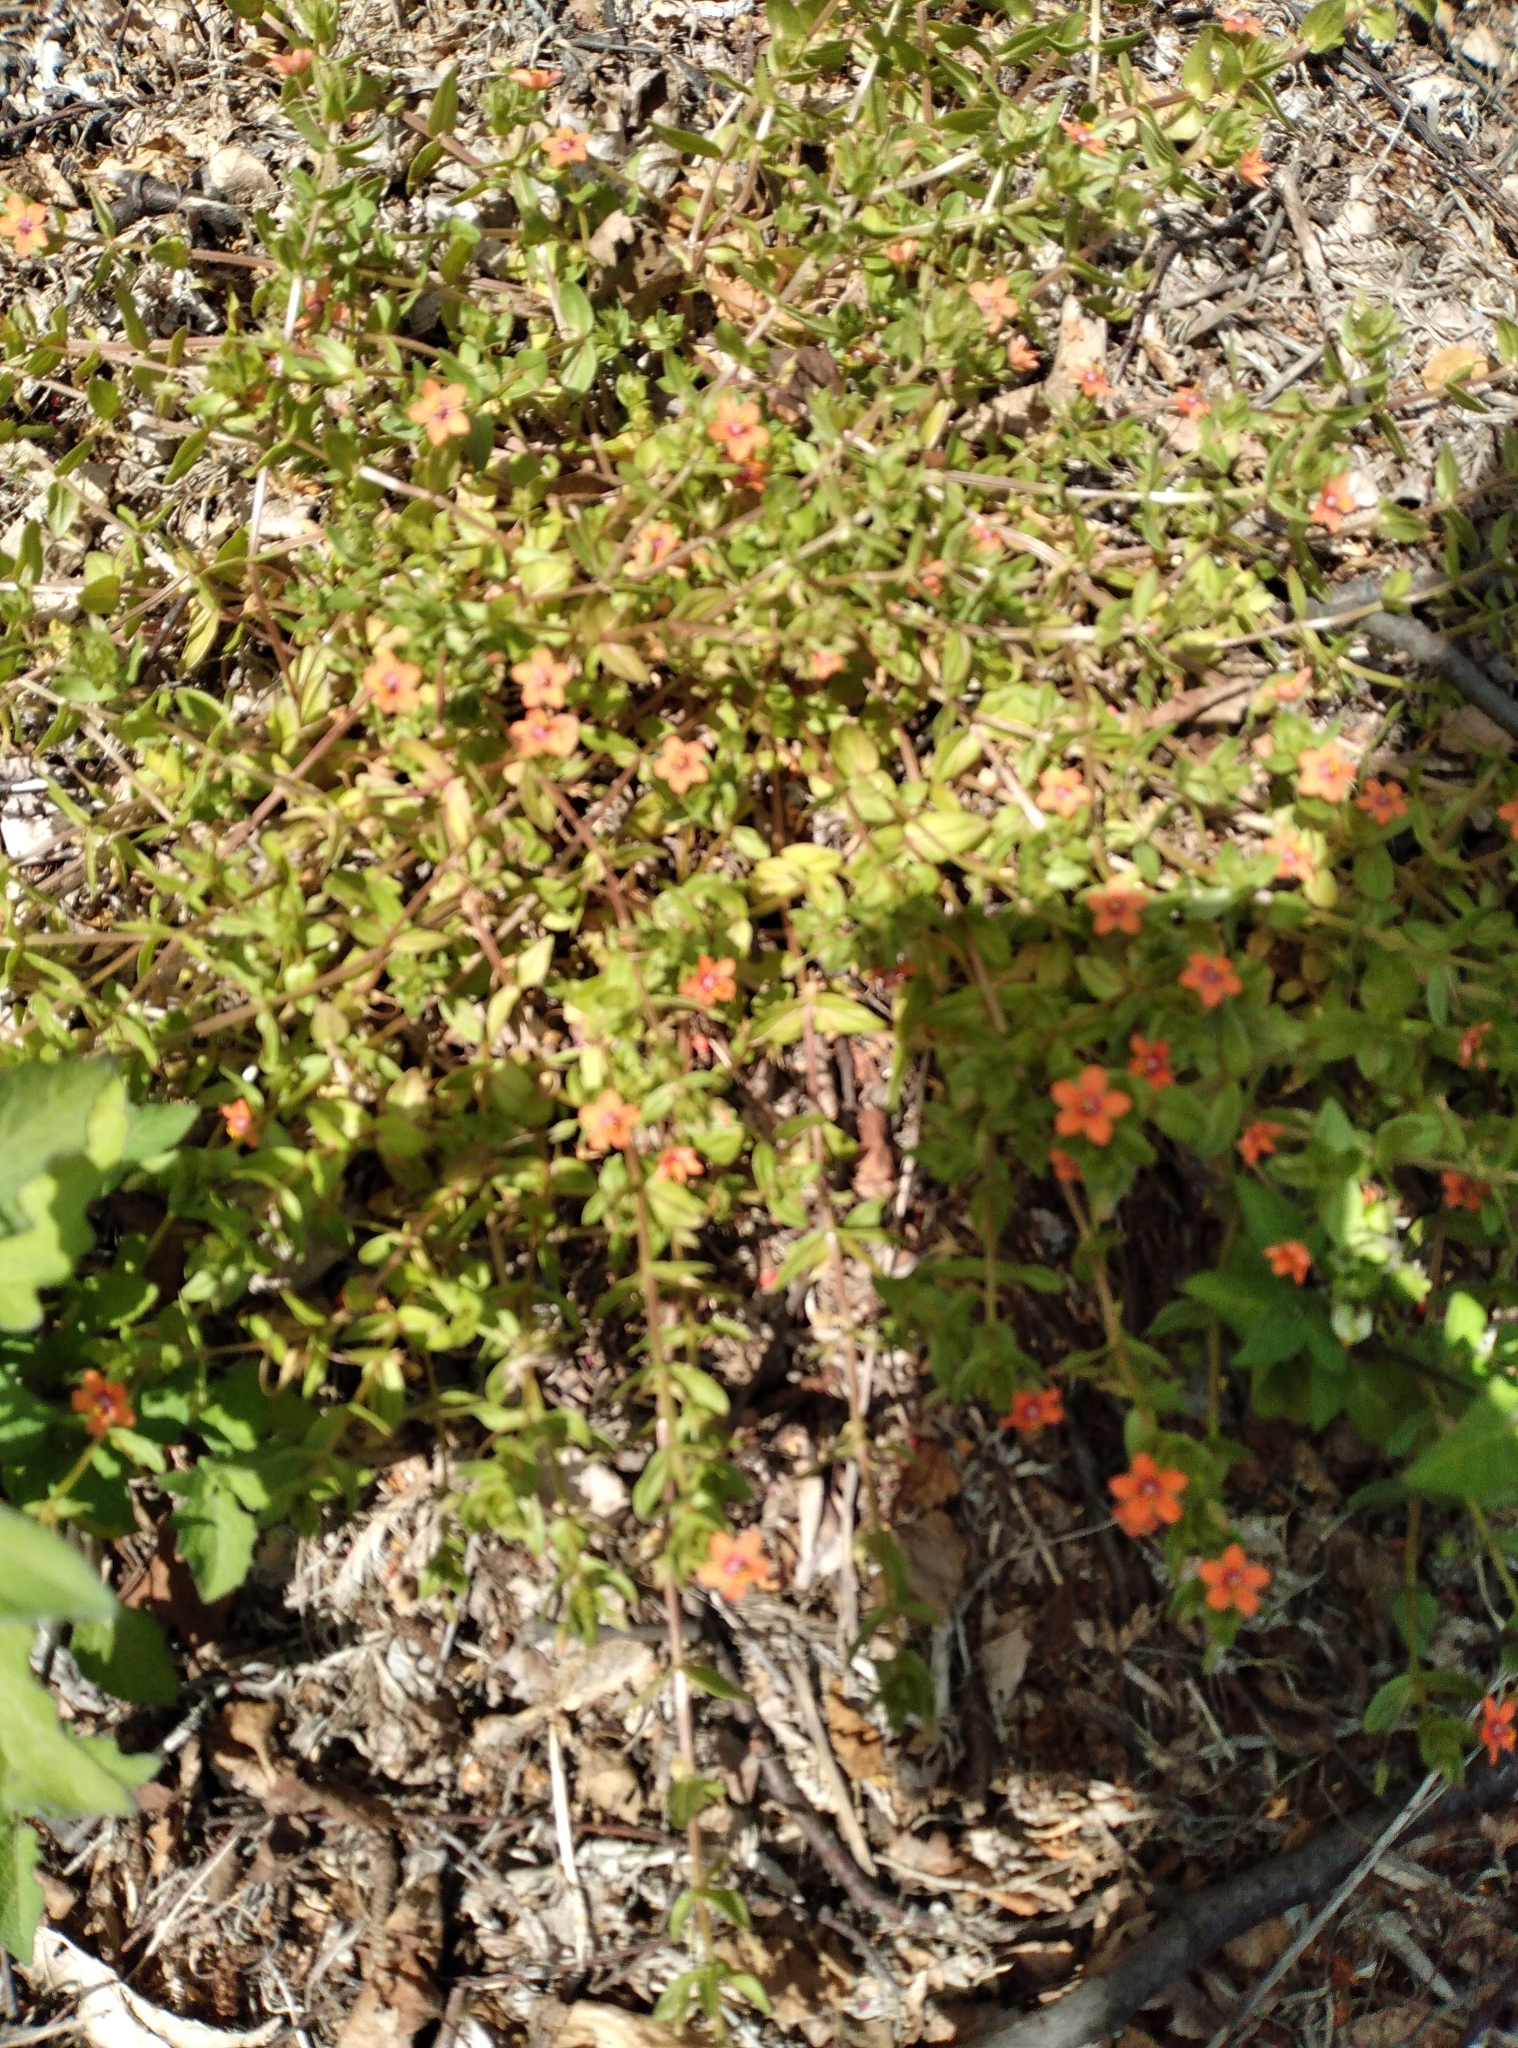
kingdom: Plantae
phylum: Tracheophyta
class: Magnoliopsida
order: Ericales
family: Primulaceae
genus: Lysimachia
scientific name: Lysimachia arvensis
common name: Scarlet pimpernel
